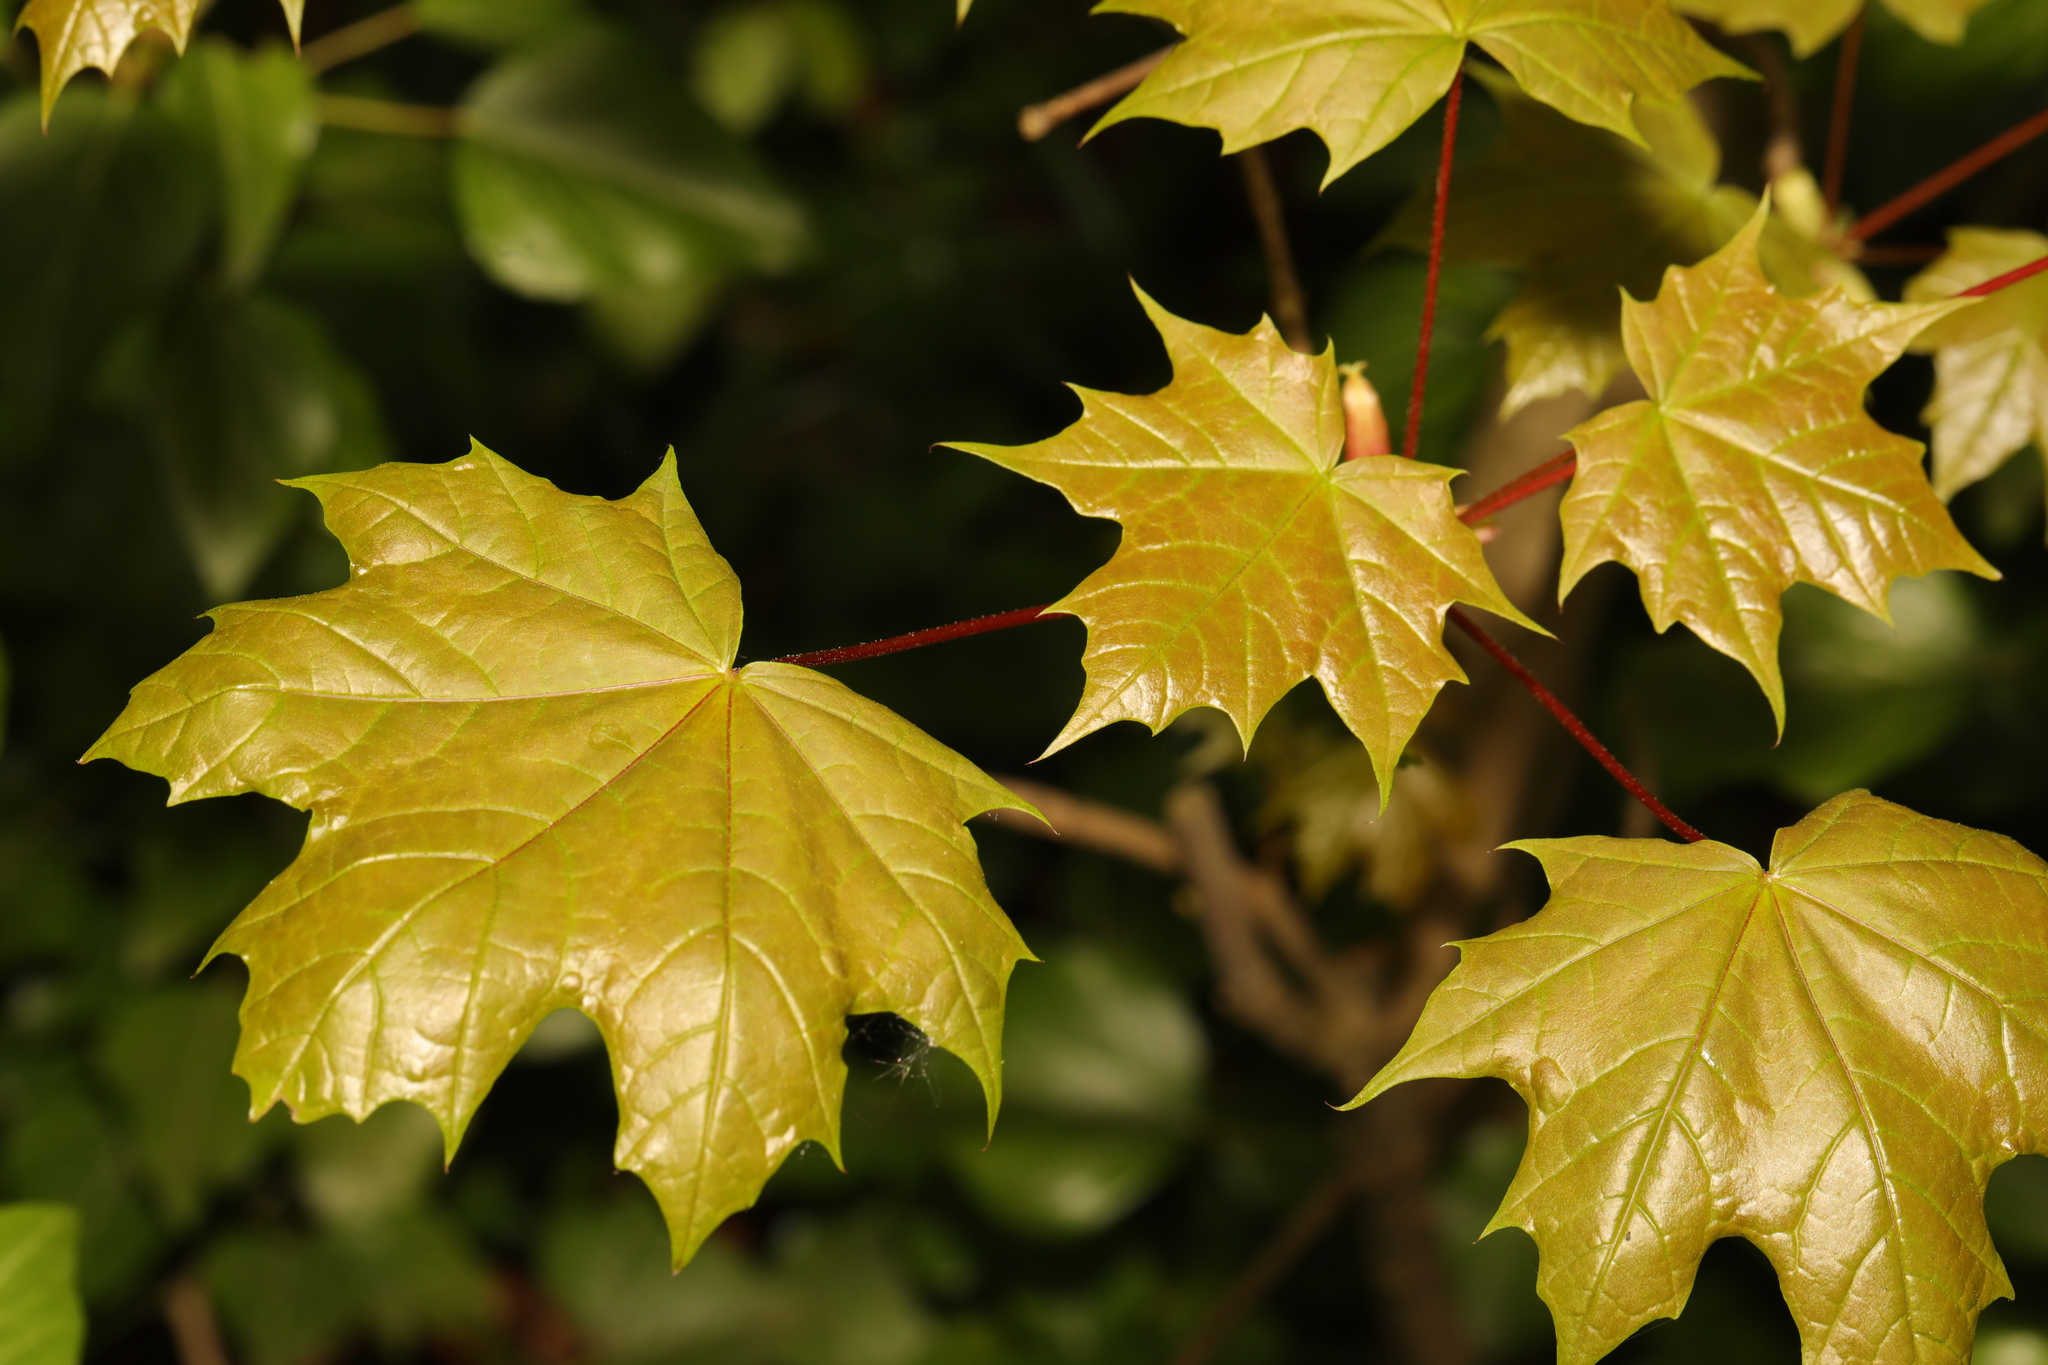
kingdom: Plantae
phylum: Tracheophyta
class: Magnoliopsida
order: Sapindales
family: Sapindaceae
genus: Acer
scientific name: Acer platanoides
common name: Norway maple
